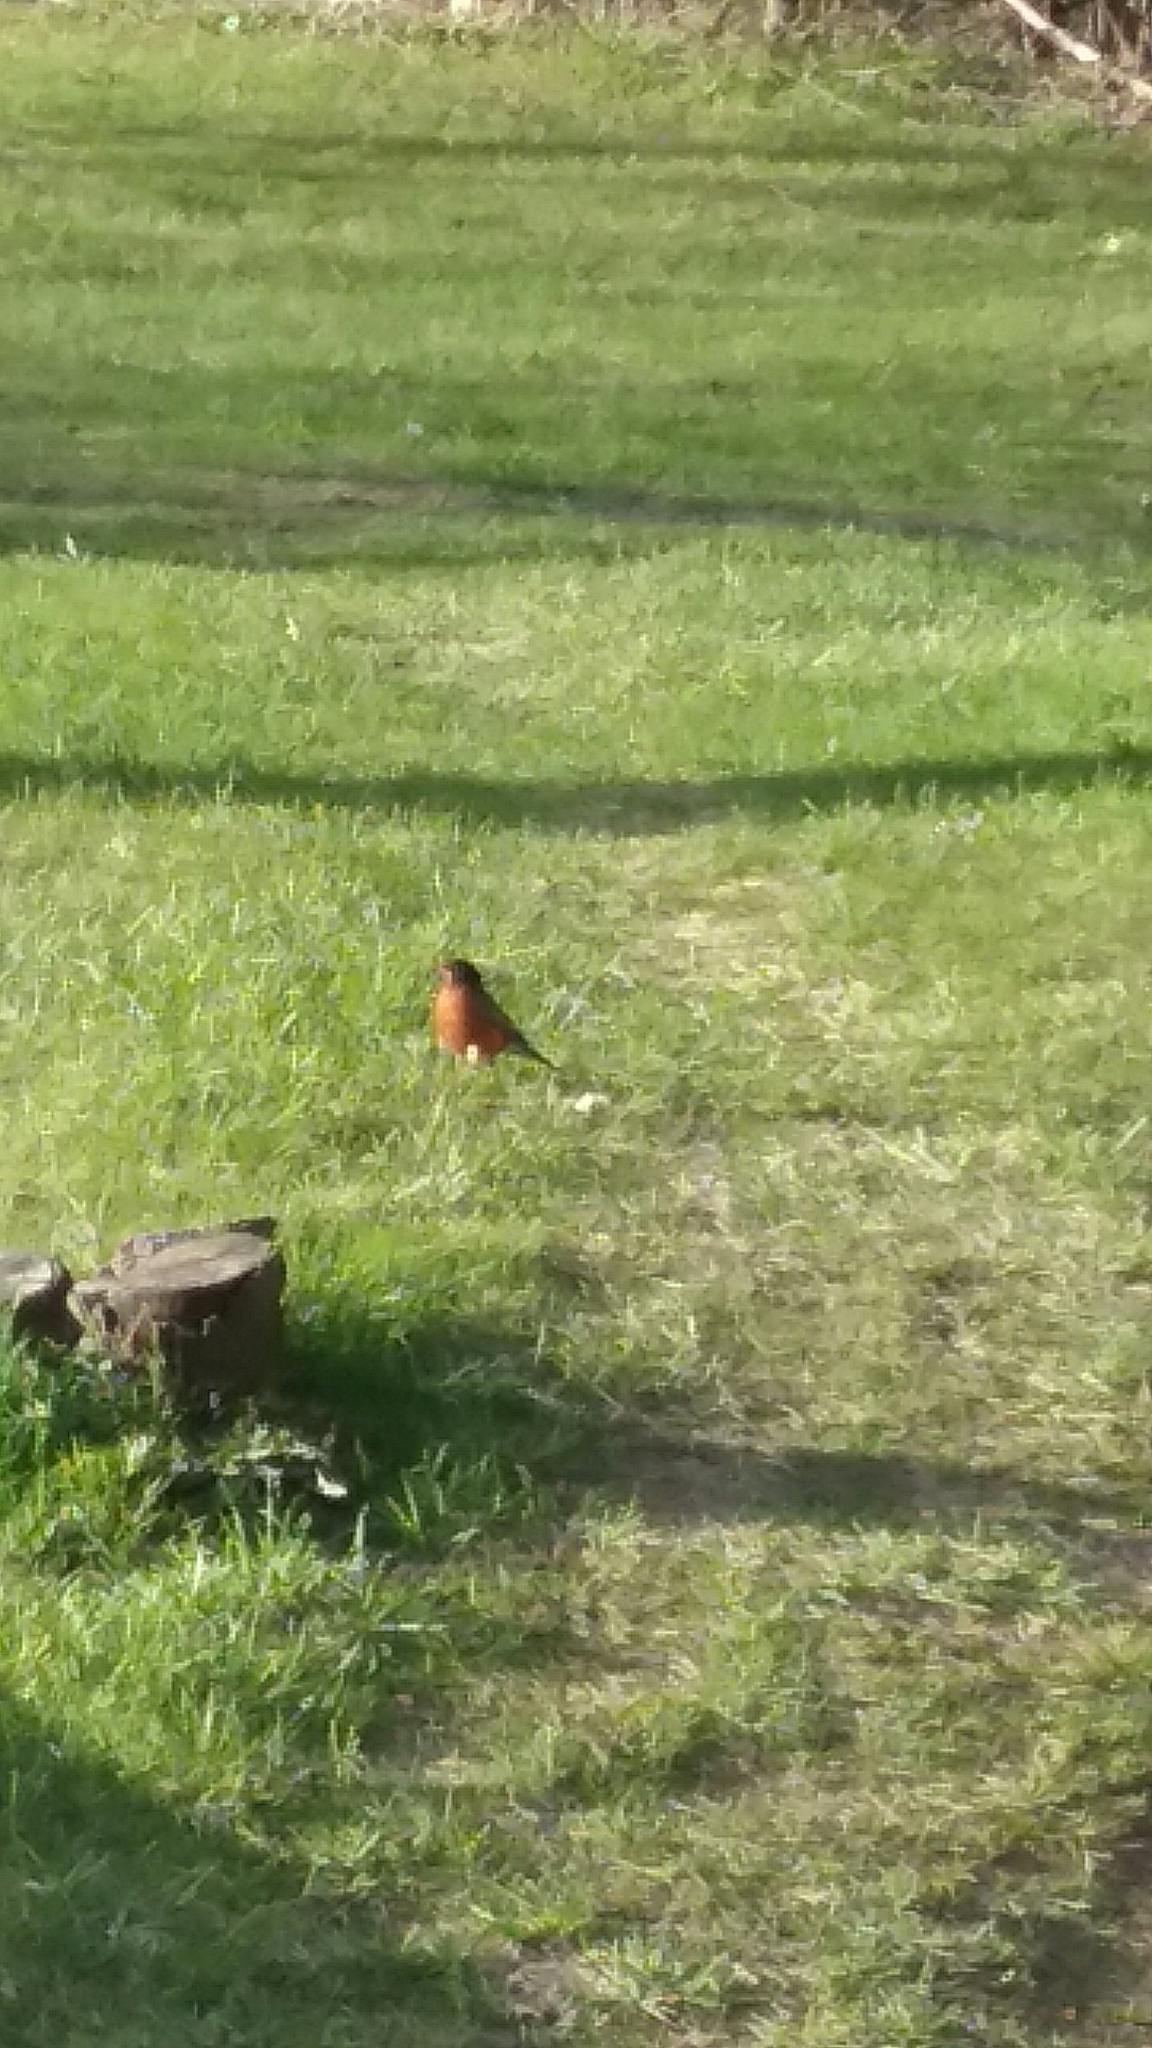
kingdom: Animalia
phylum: Chordata
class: Aves
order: Passeriformes
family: Turdidae
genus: Turdus
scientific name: Turdus migratorius
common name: American robin
